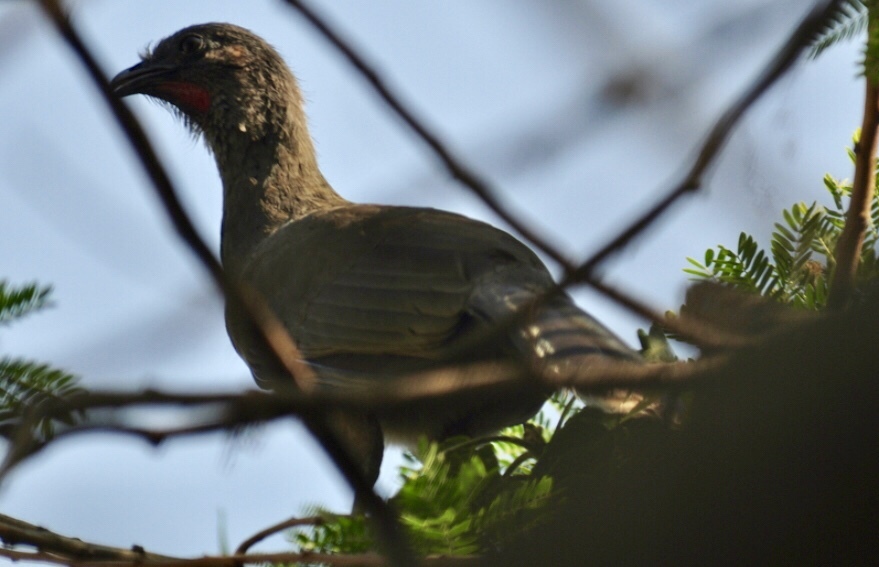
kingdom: Animalia
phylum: Chordata
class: Aves
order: Galliformes
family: Cracidae
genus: Ortalis
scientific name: Ortalis vetula
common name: Plain chachalaca
